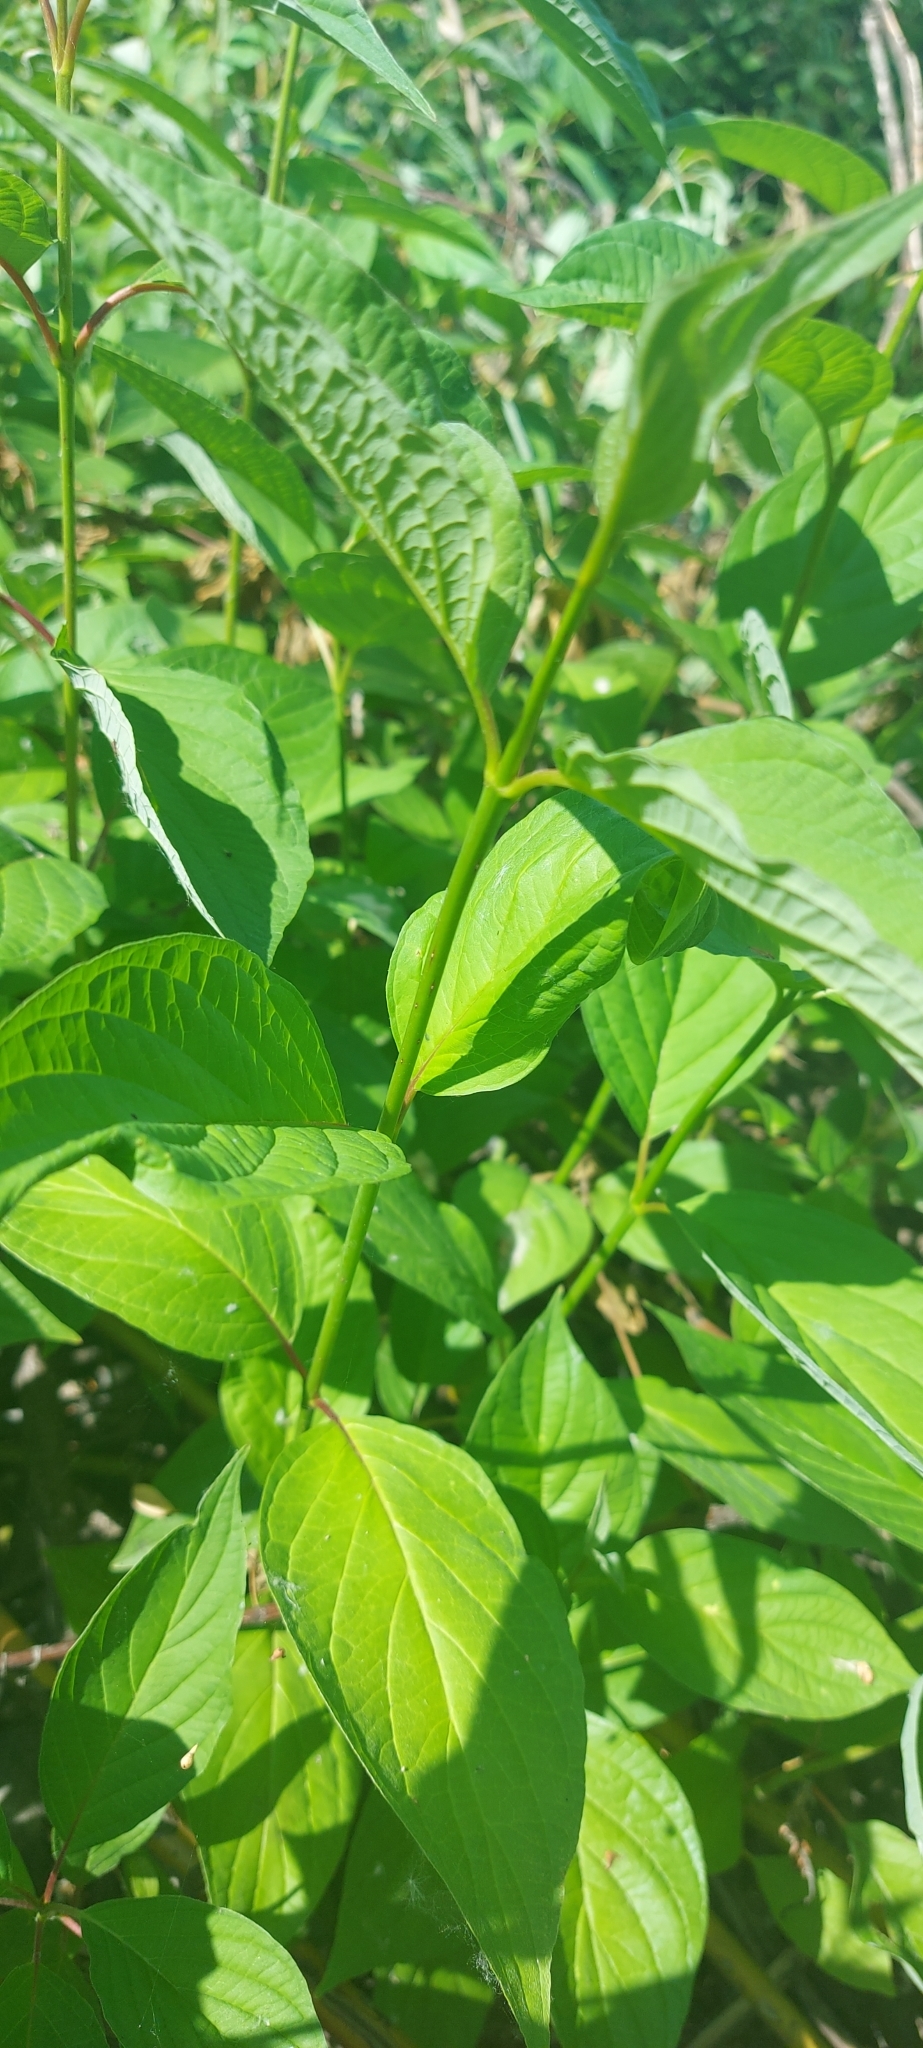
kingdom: Plantae
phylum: Tracheophyta
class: Magnoliopsida
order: Cornales
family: Cornaceae
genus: Cornus
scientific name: Cornus alba
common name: White dogwood
